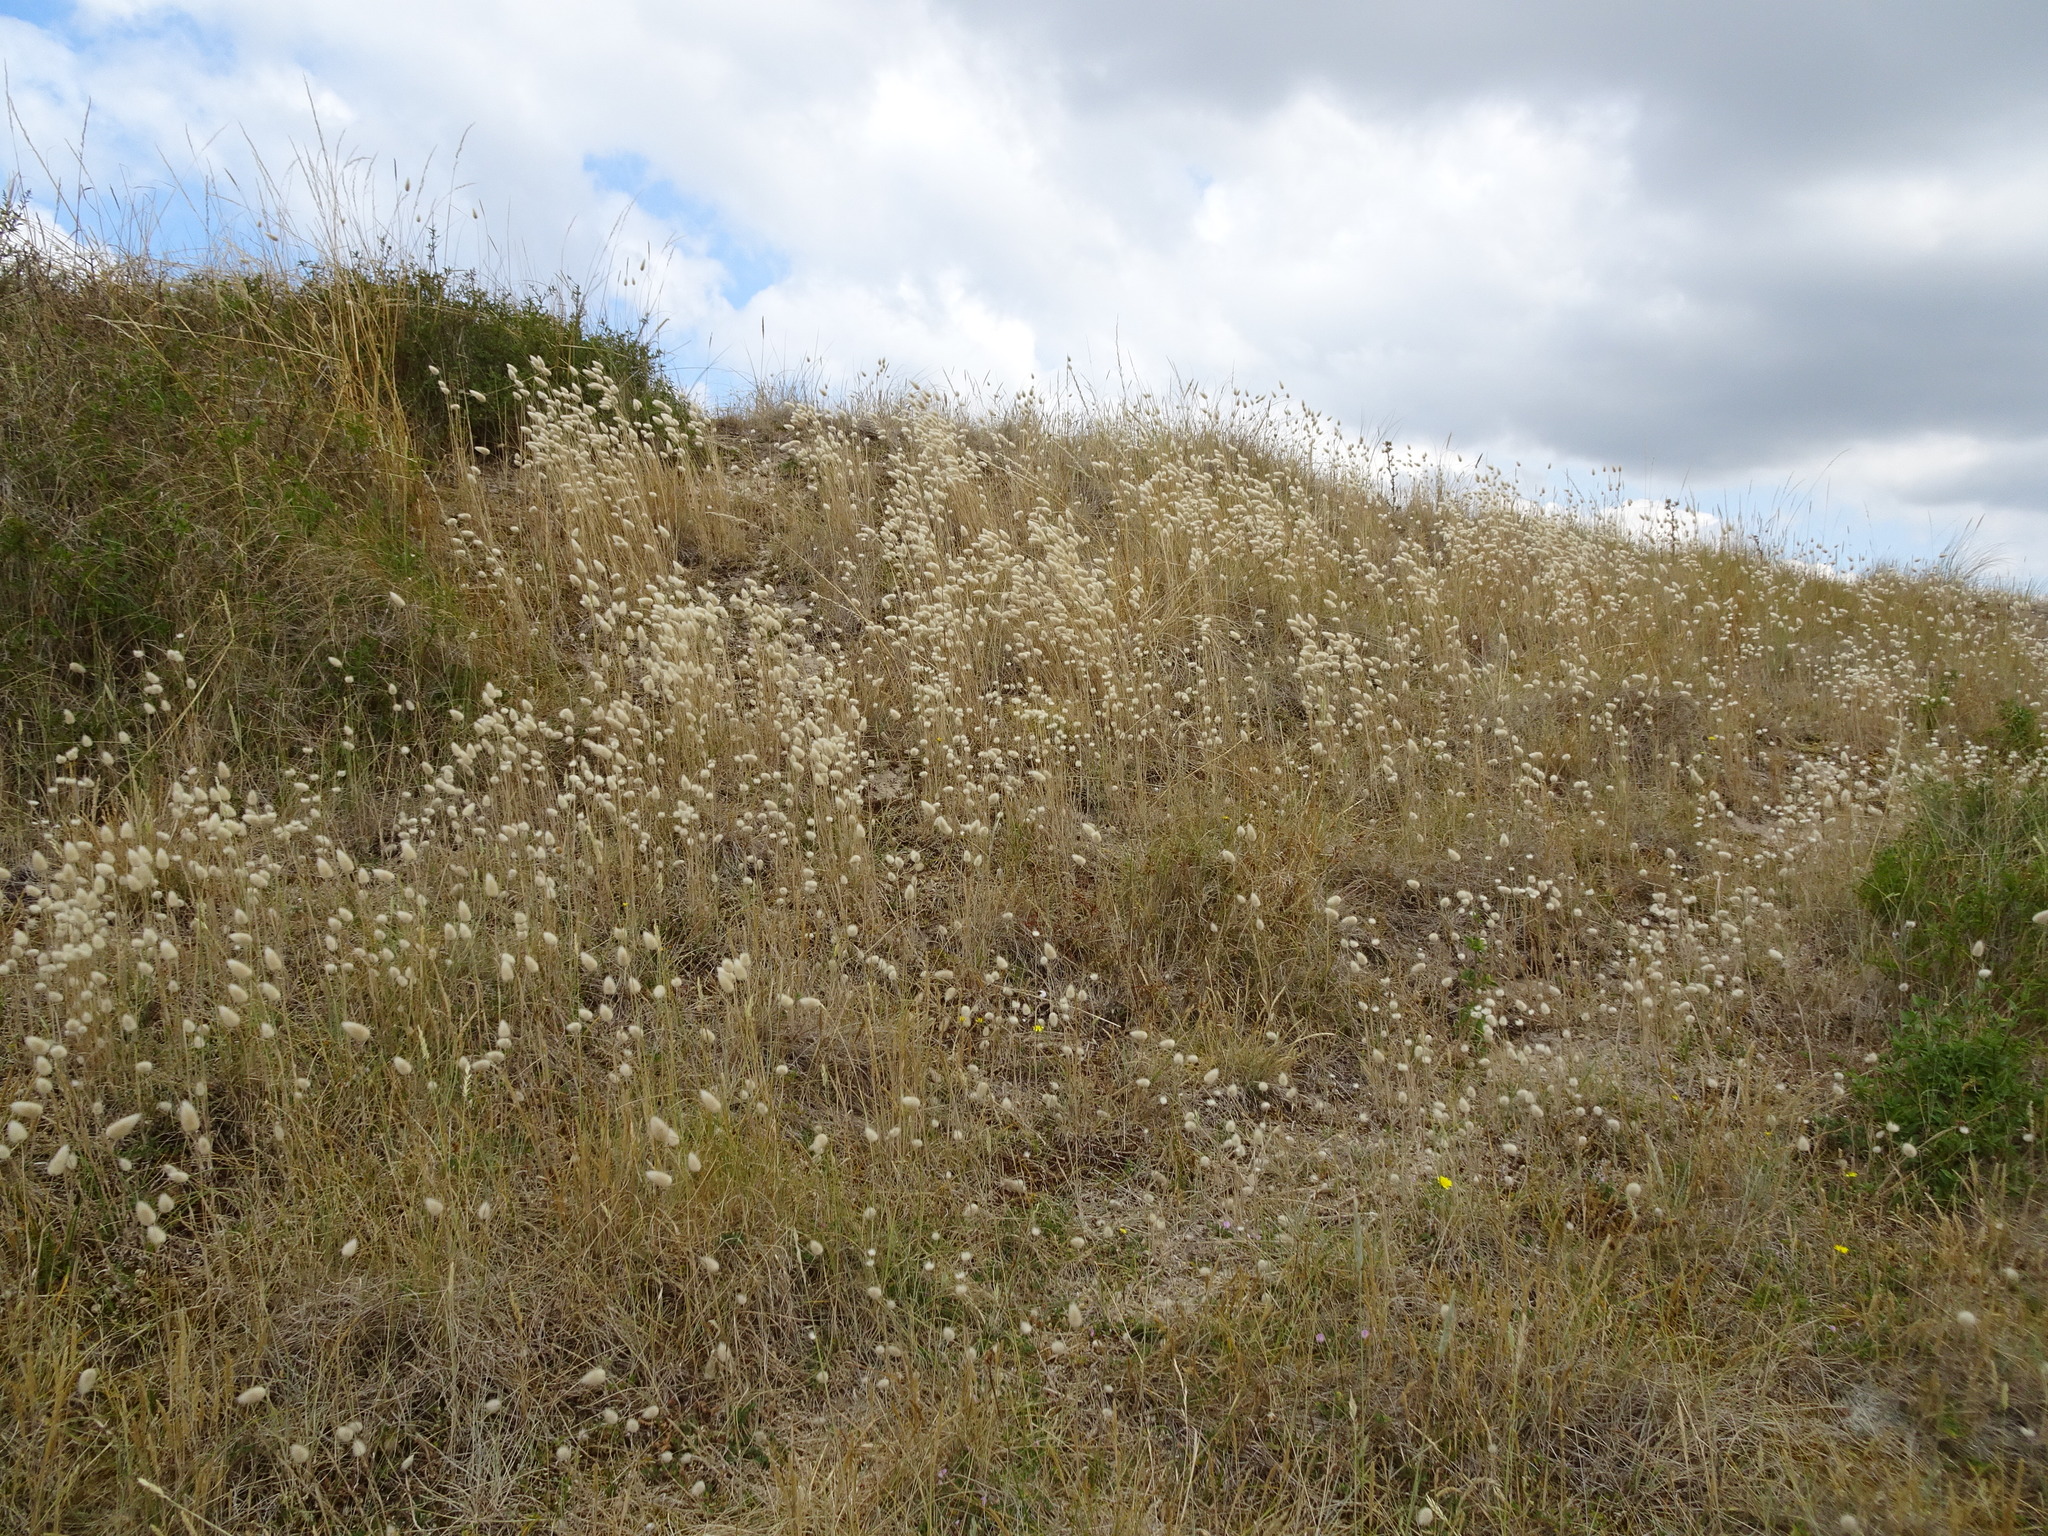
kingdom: Plantae
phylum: Tracheophyta
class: Liliopsida
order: Poales
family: Poaceae
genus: Lagurus
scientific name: Lagurus ovatus
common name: Hare's-tail
